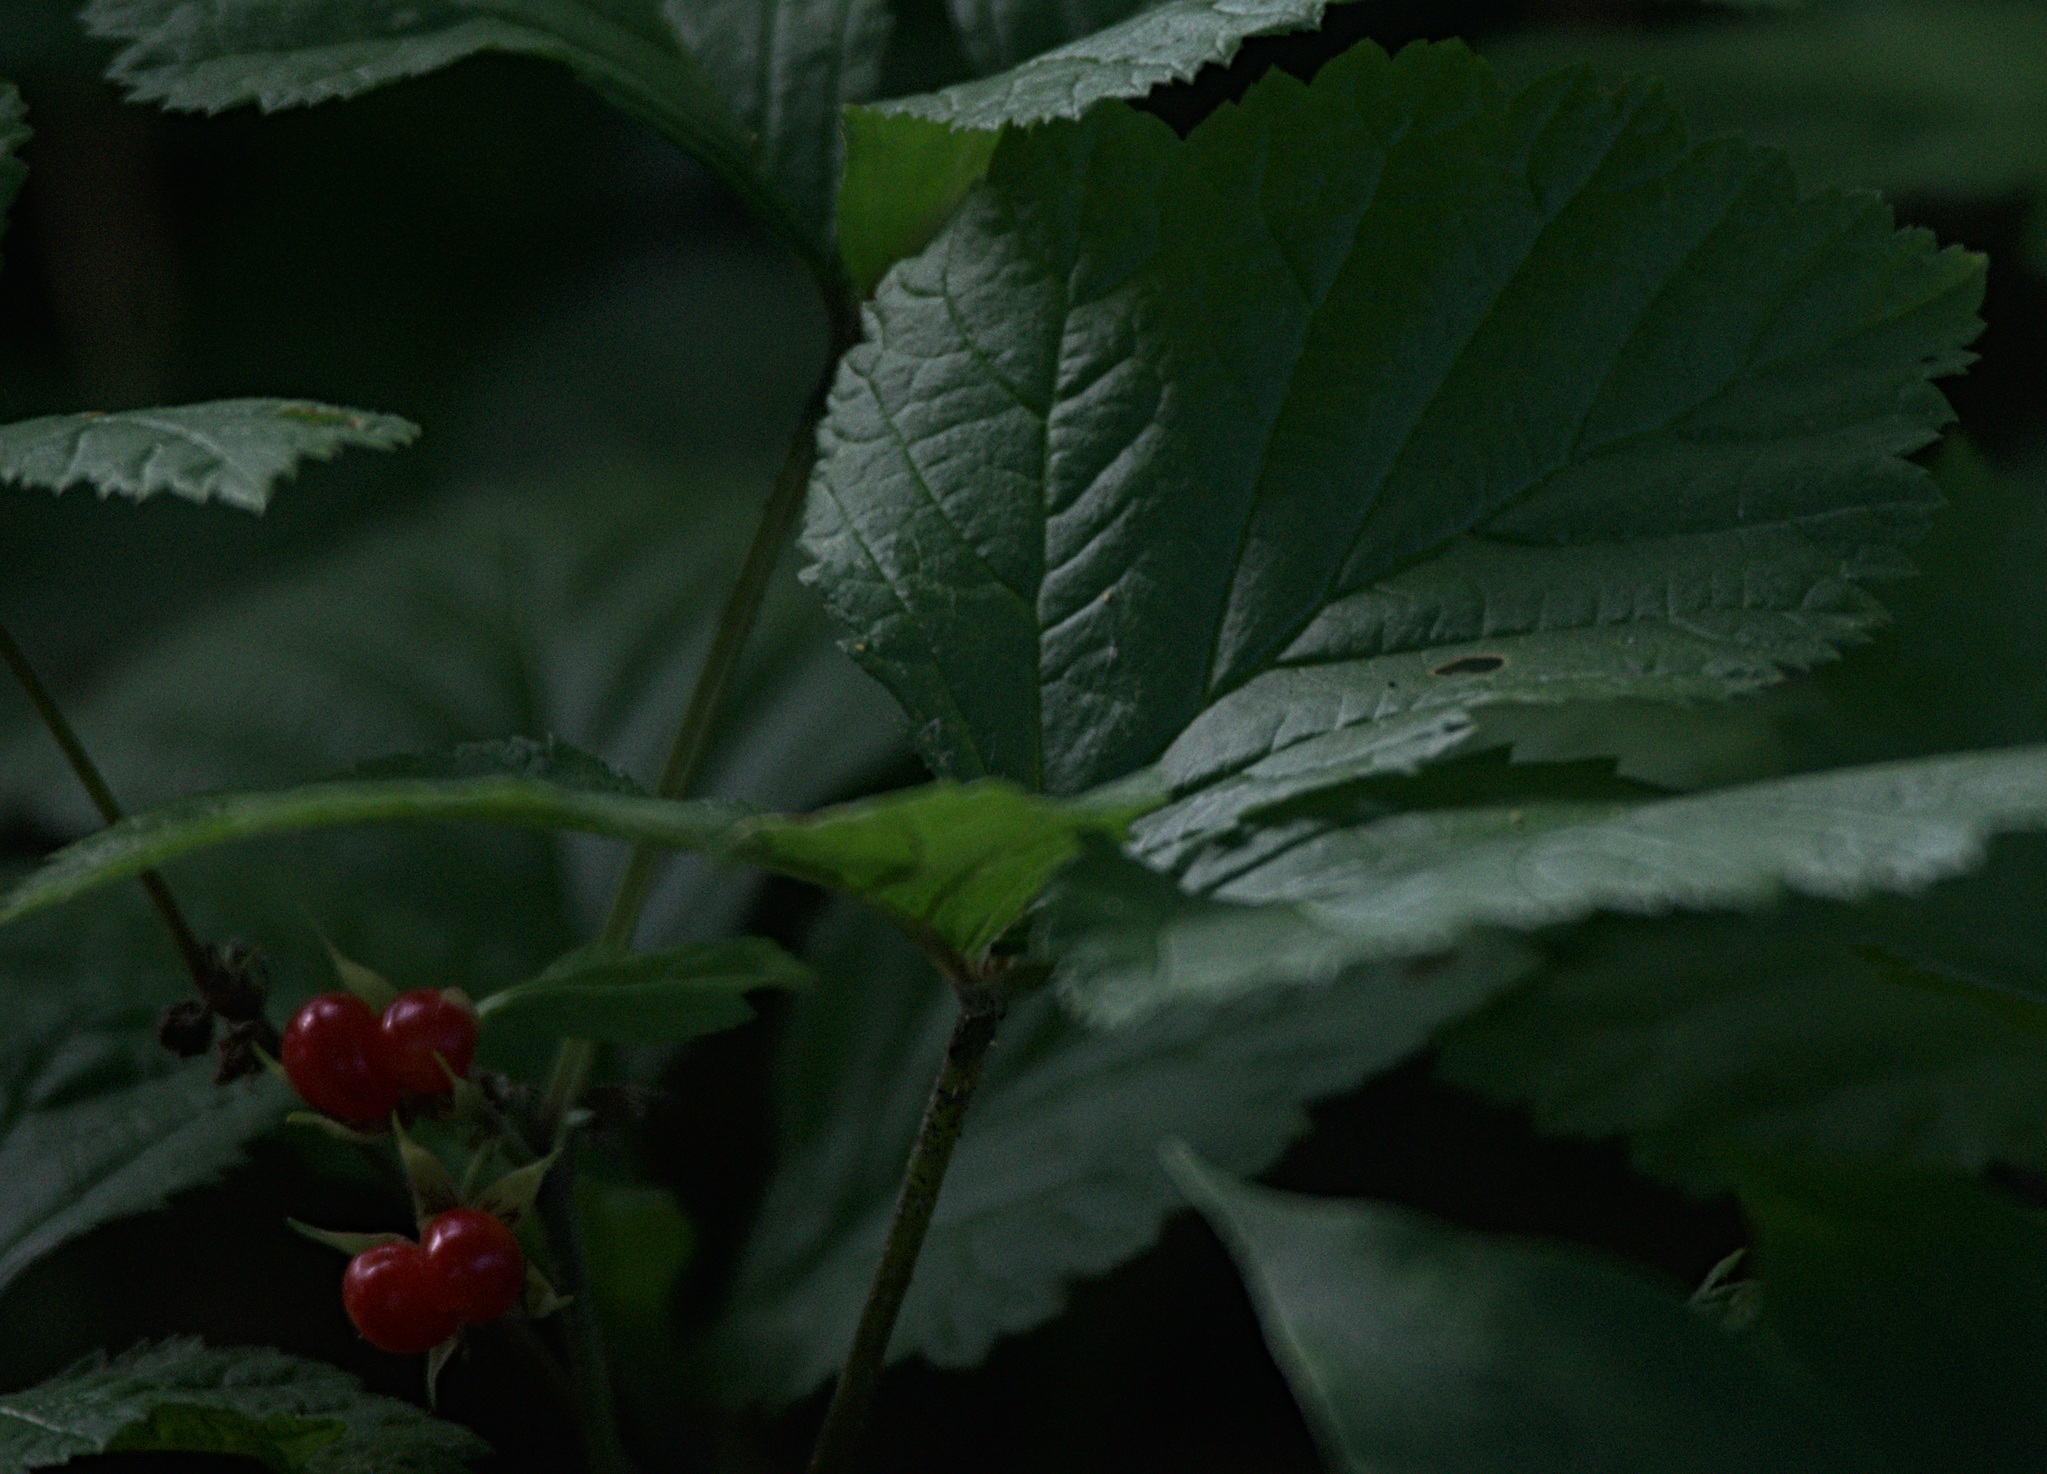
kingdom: Plantae
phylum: Tracheophyta
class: Magnoliopsida
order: Rosales
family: Rosaceae
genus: Rubus
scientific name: Rubus saxatilis
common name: Stone bramble
